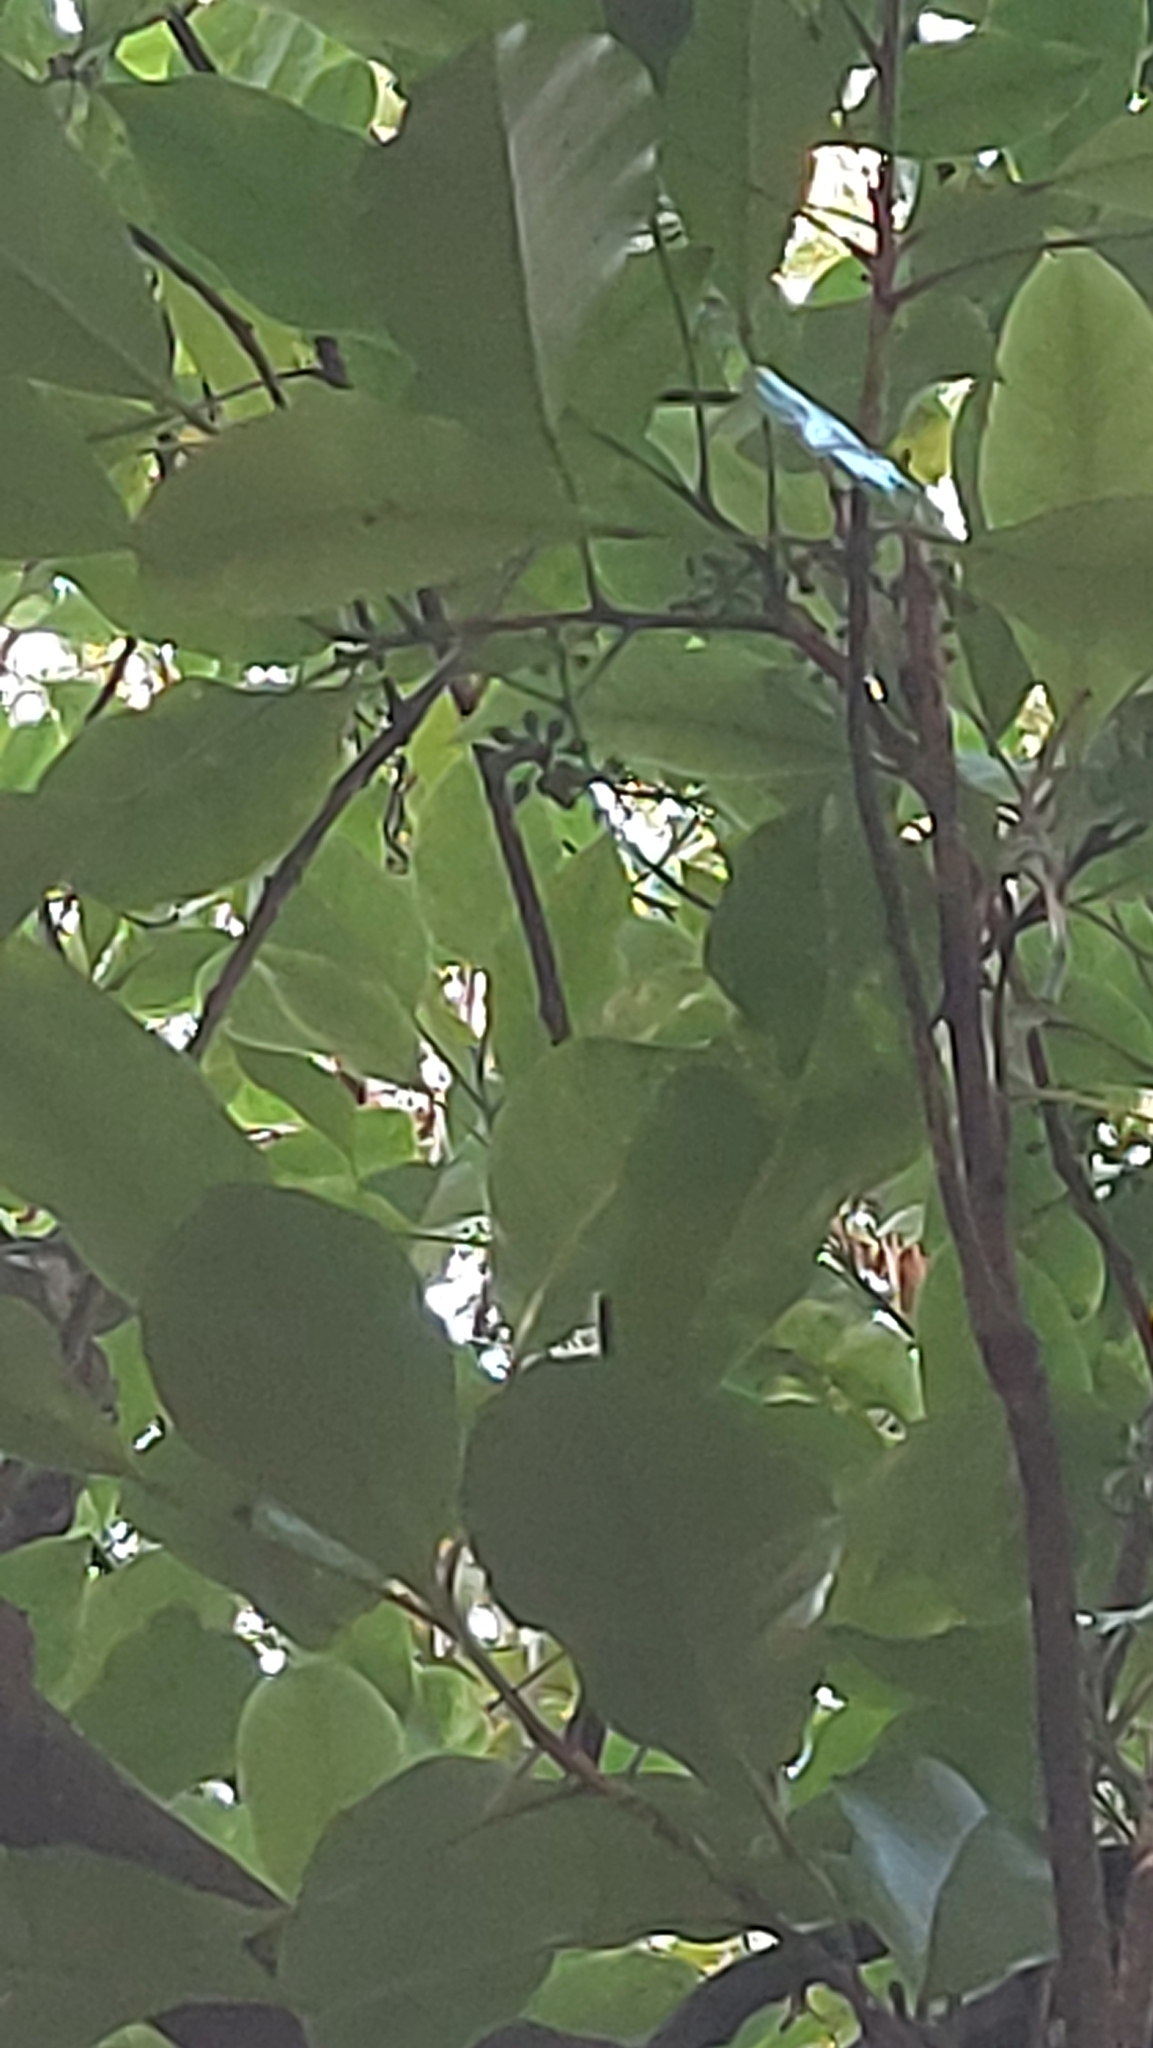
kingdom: Plantae
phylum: Tracheophyta
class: Magnoliopsida
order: Apiales
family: Araliaceae
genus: Raukaua
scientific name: Raukaua edgerleyi
